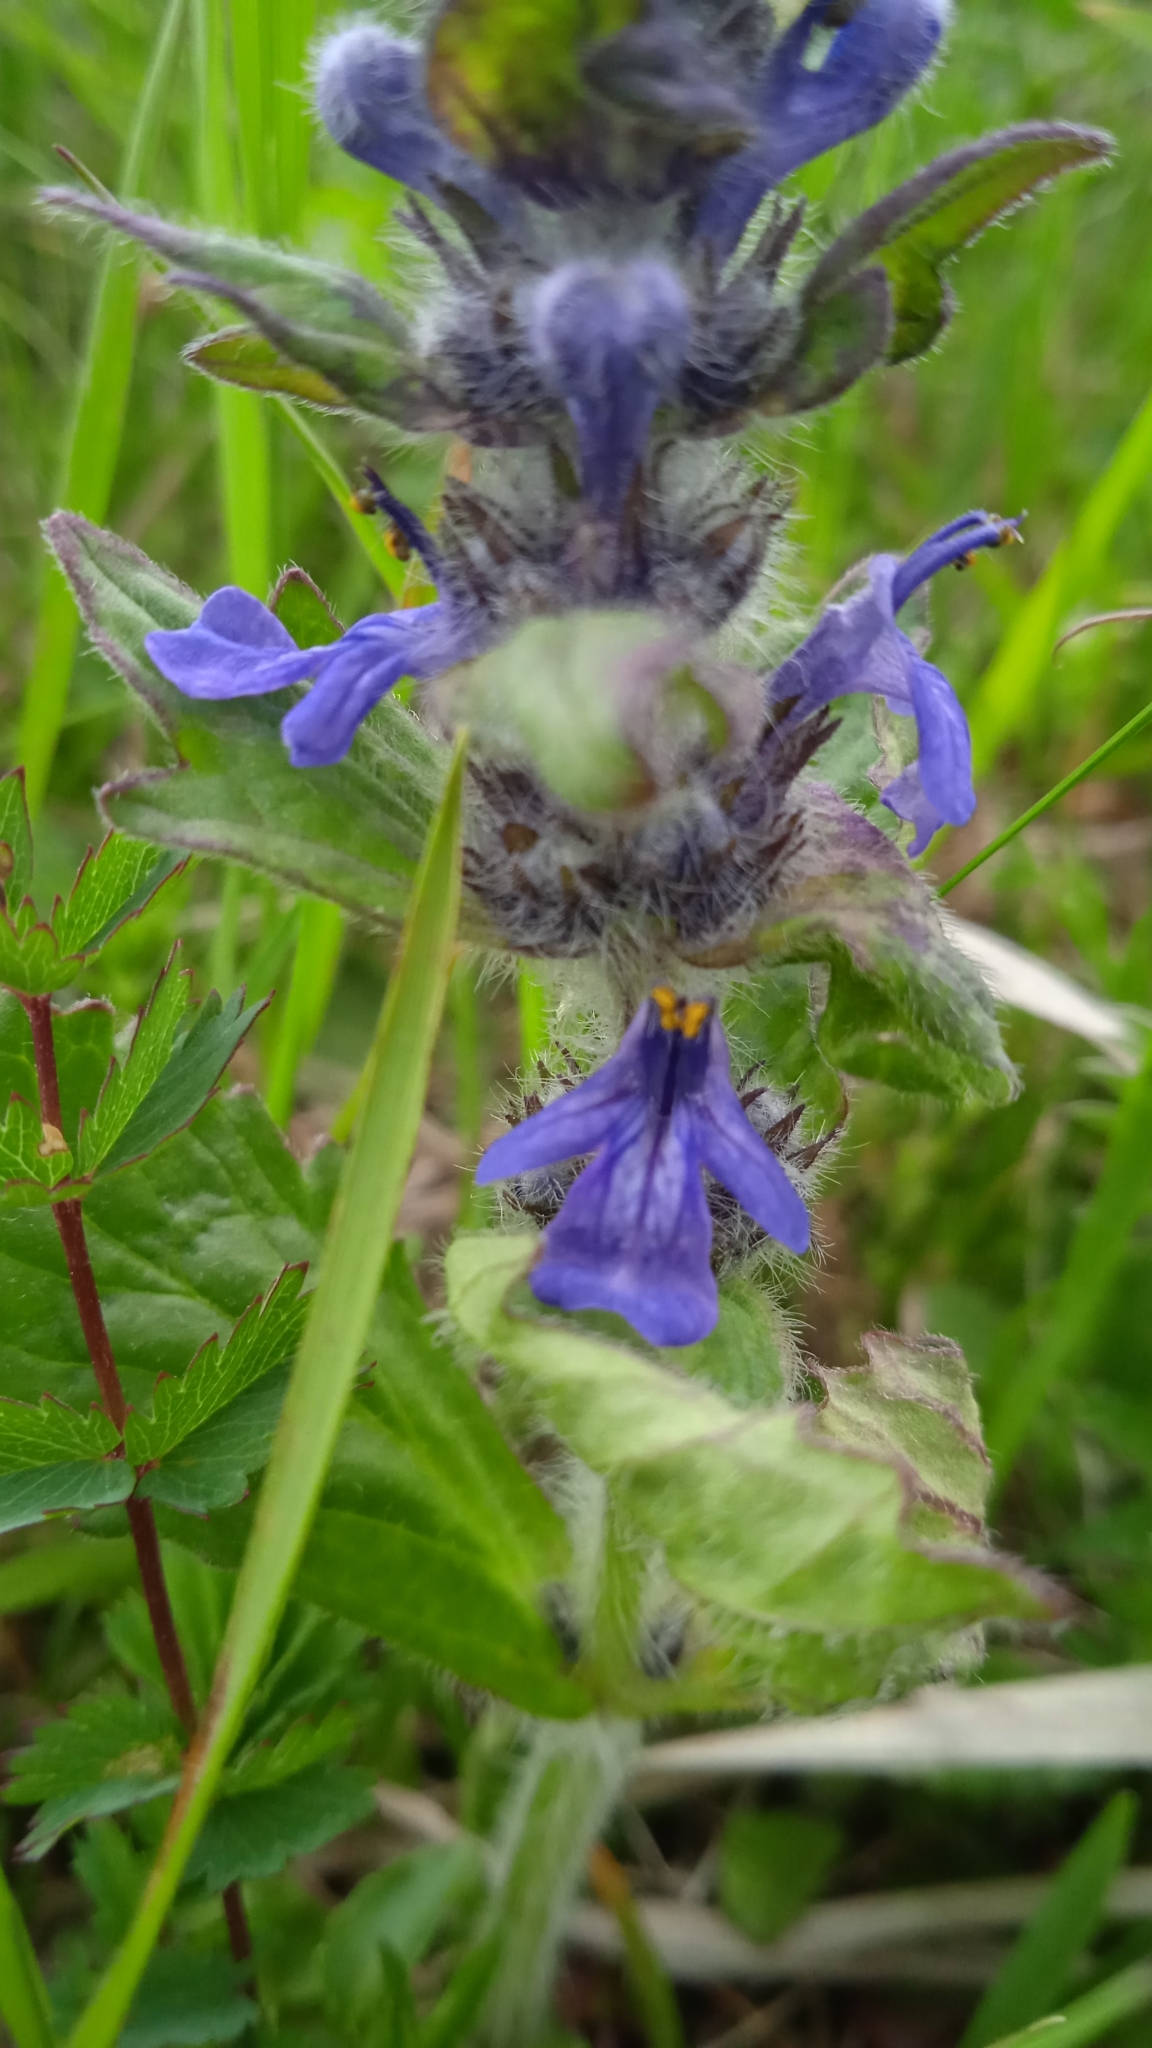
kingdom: Plantae
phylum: Tracheophyta
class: Magnoliopsida
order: Lamiales
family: Lamiaceae
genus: Ajuga
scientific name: Ajuga genevensis
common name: Blue bugle
